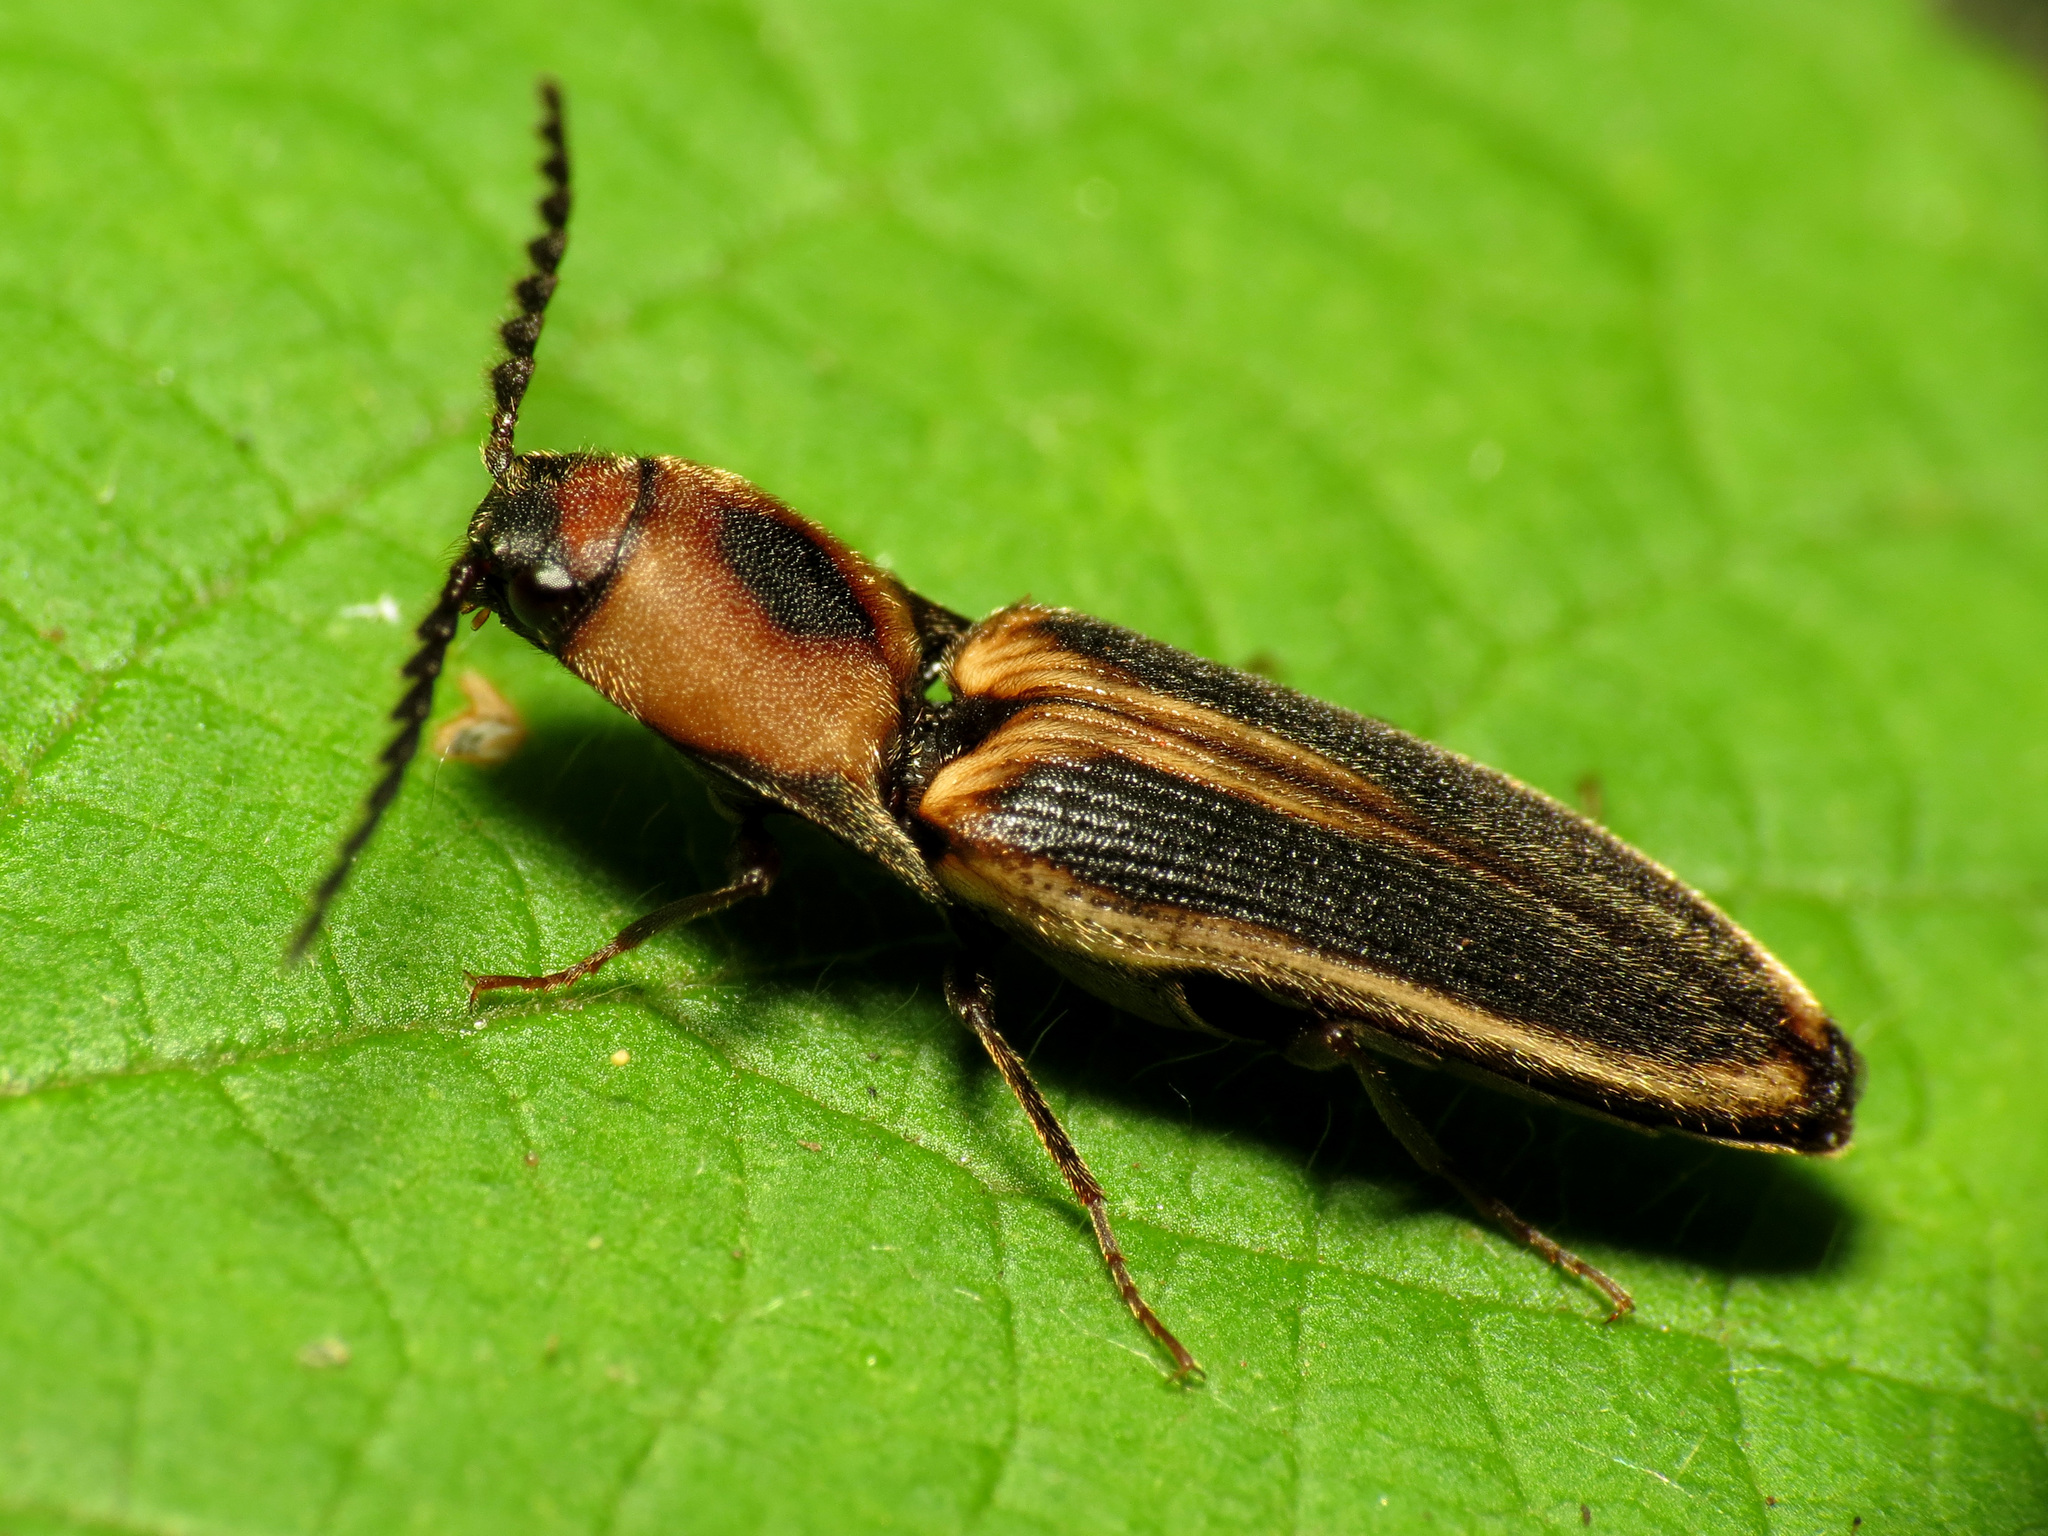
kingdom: Animalia
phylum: Arthropoda
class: Insecta
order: Coleoptera
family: Elateridae
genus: Megapenthes
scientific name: Megapenthes
